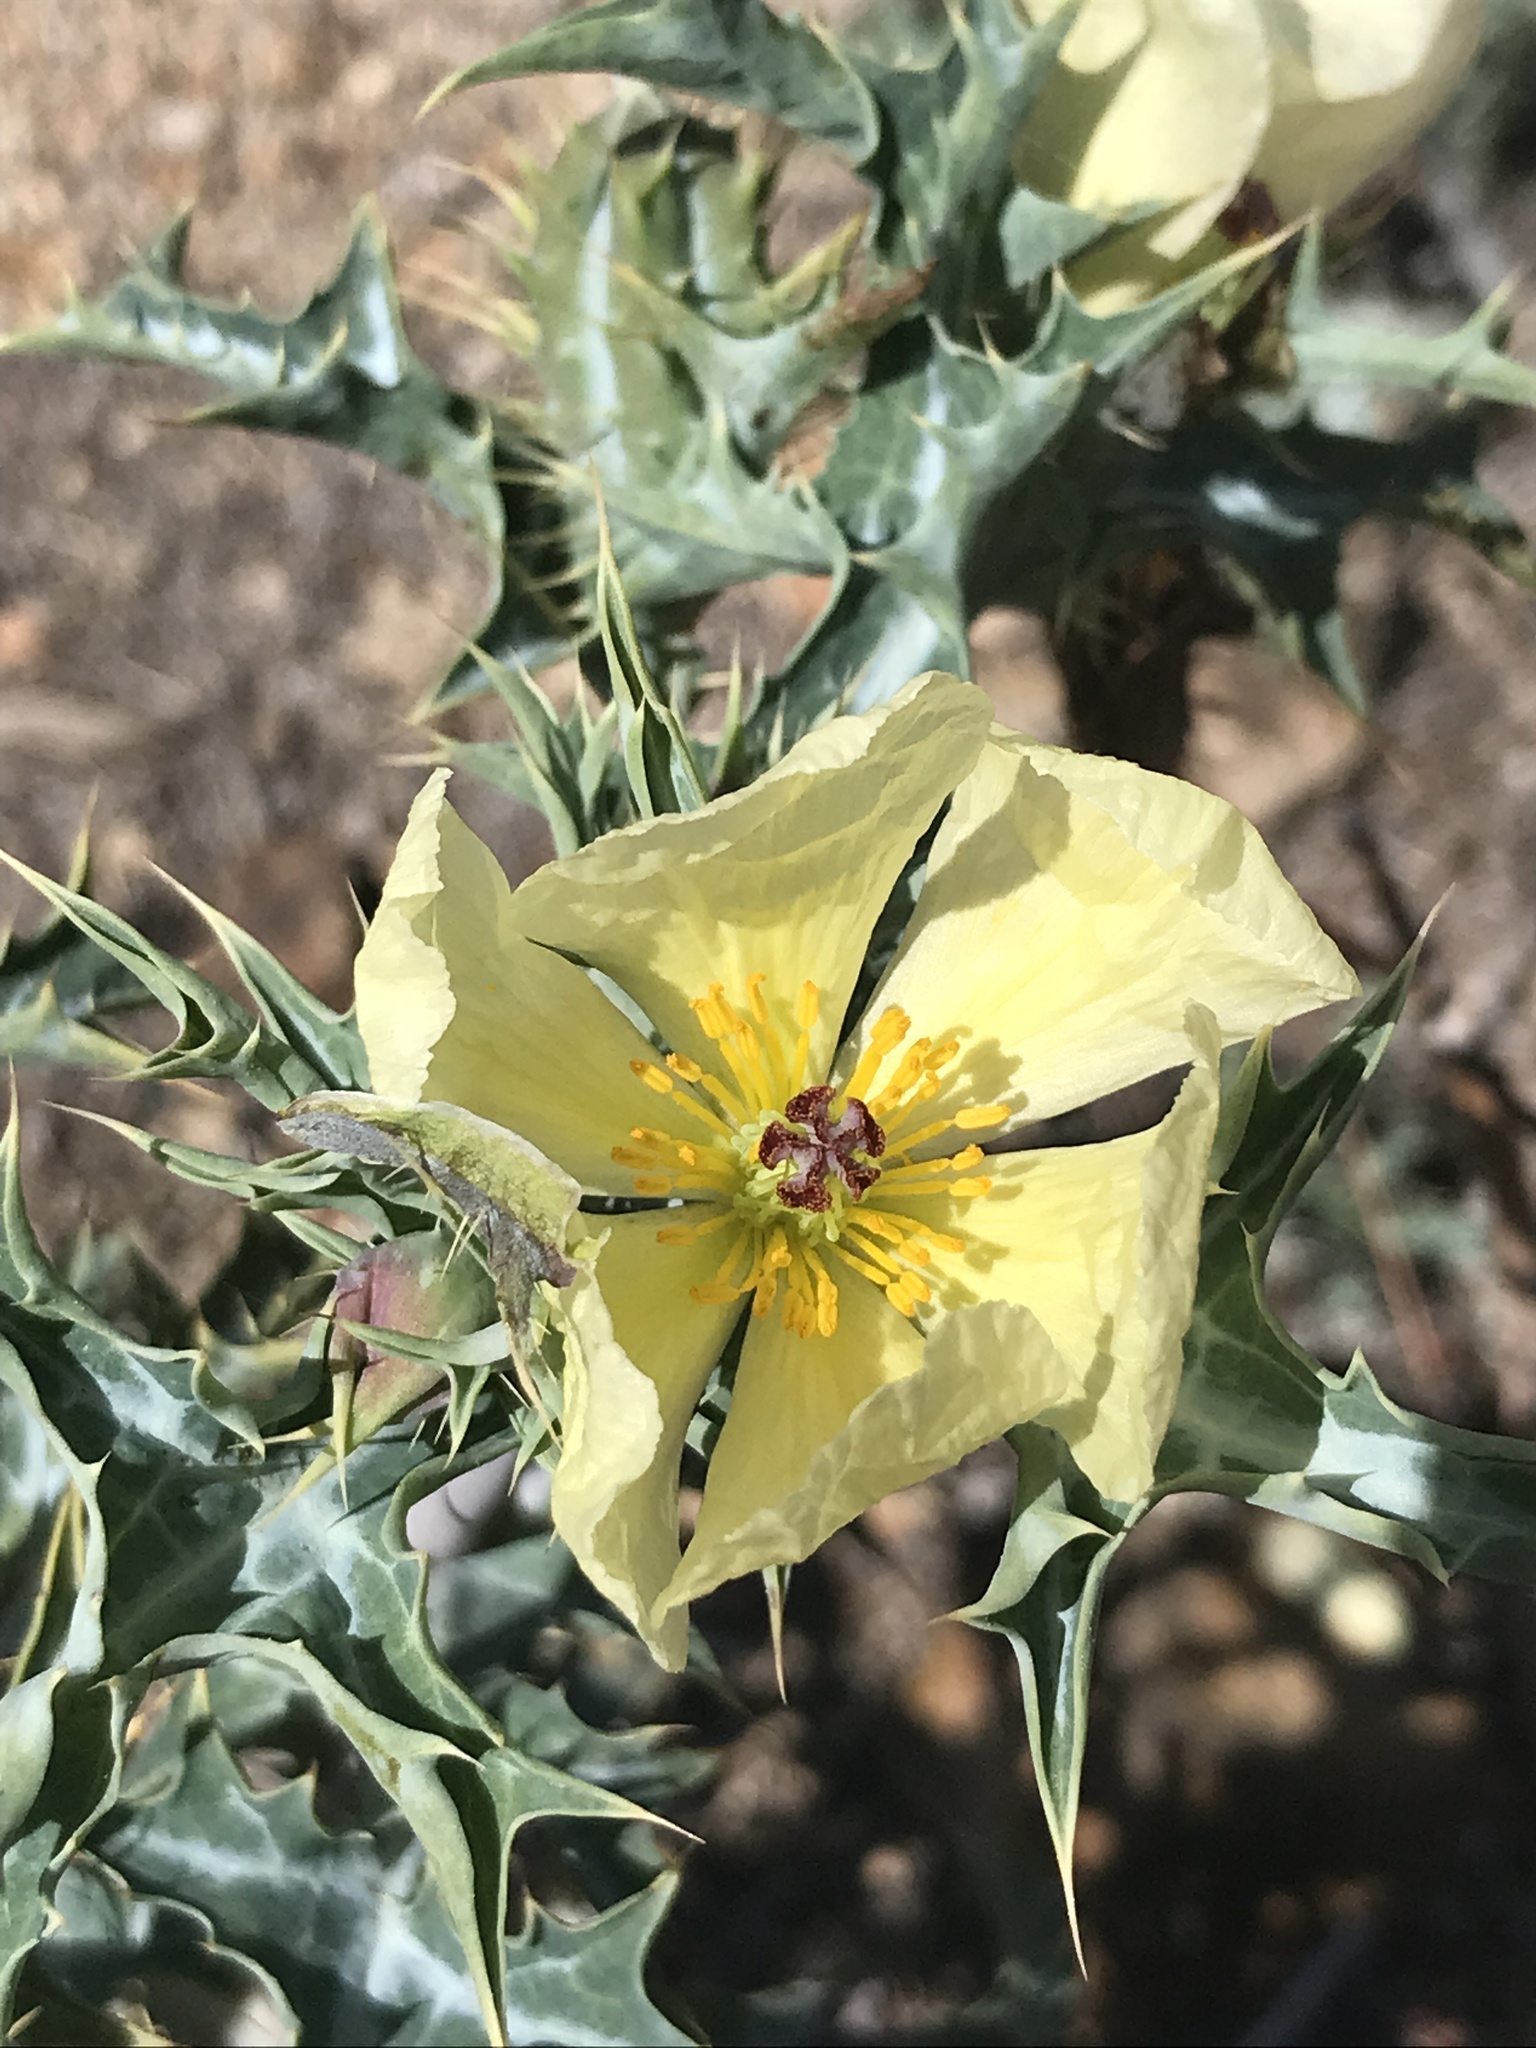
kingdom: Plantae
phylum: Tracheophyta
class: Magnoliopsida
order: Ranunculales
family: Papaveraceae
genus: Argemone
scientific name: Argemone ochroleuca
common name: White-flower mexican-poppy
